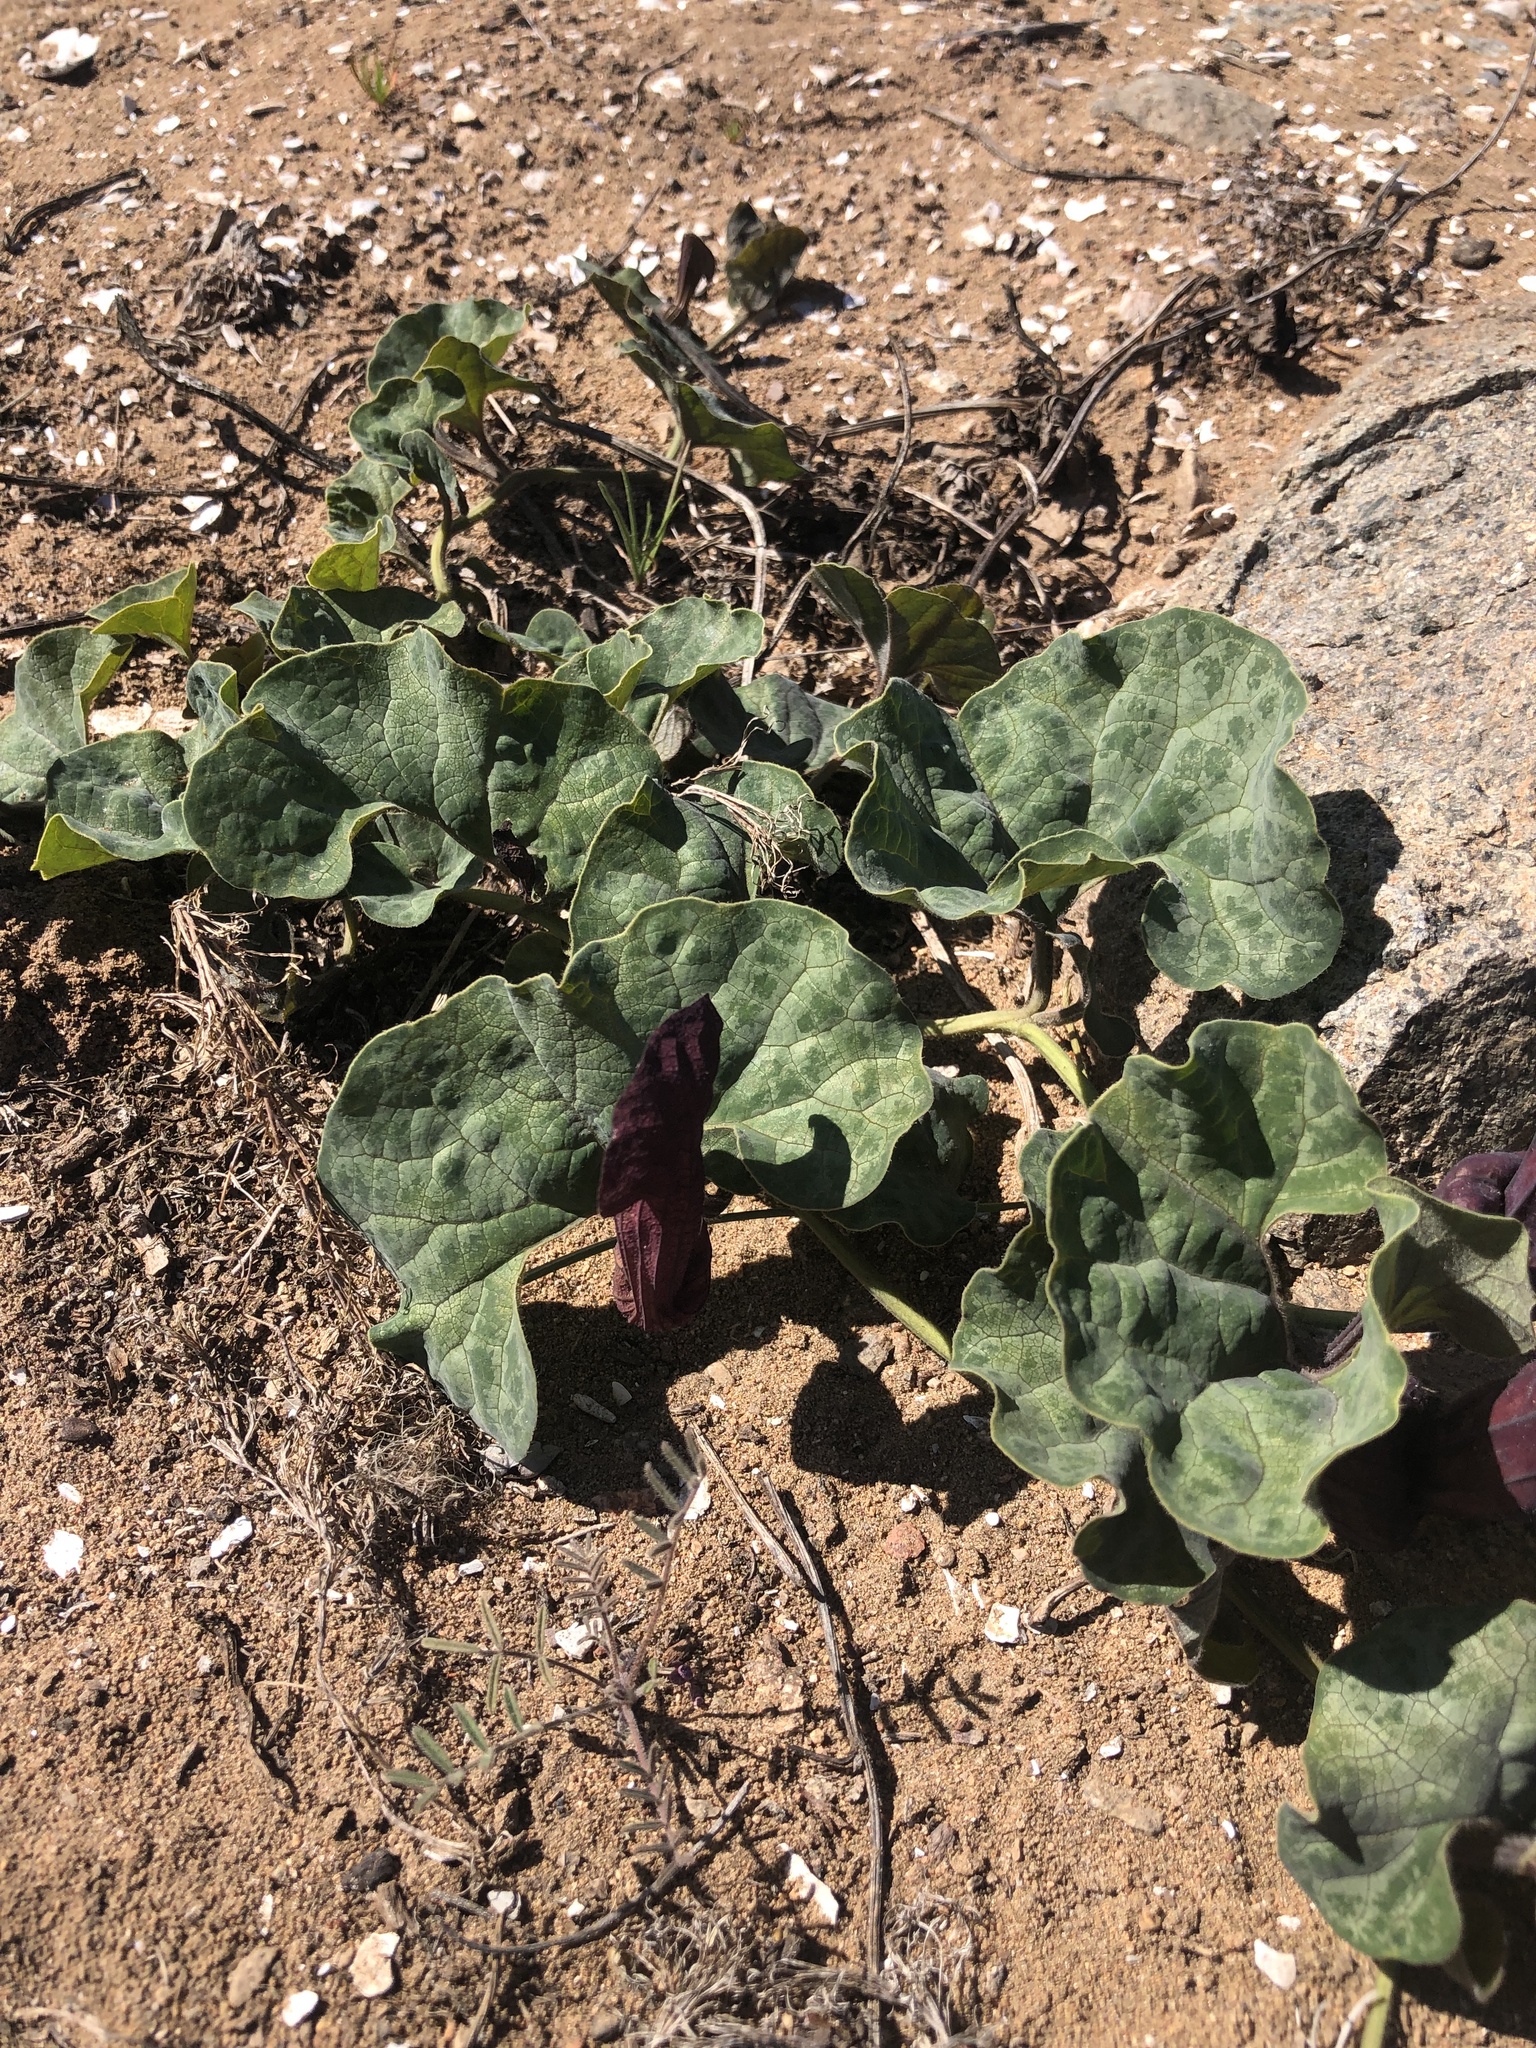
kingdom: Plantae
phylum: Tracheophyta
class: Magnoliopsida
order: Piperales
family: Aristolochiaceae
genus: Aristolochia
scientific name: Aristolochia chilensis
